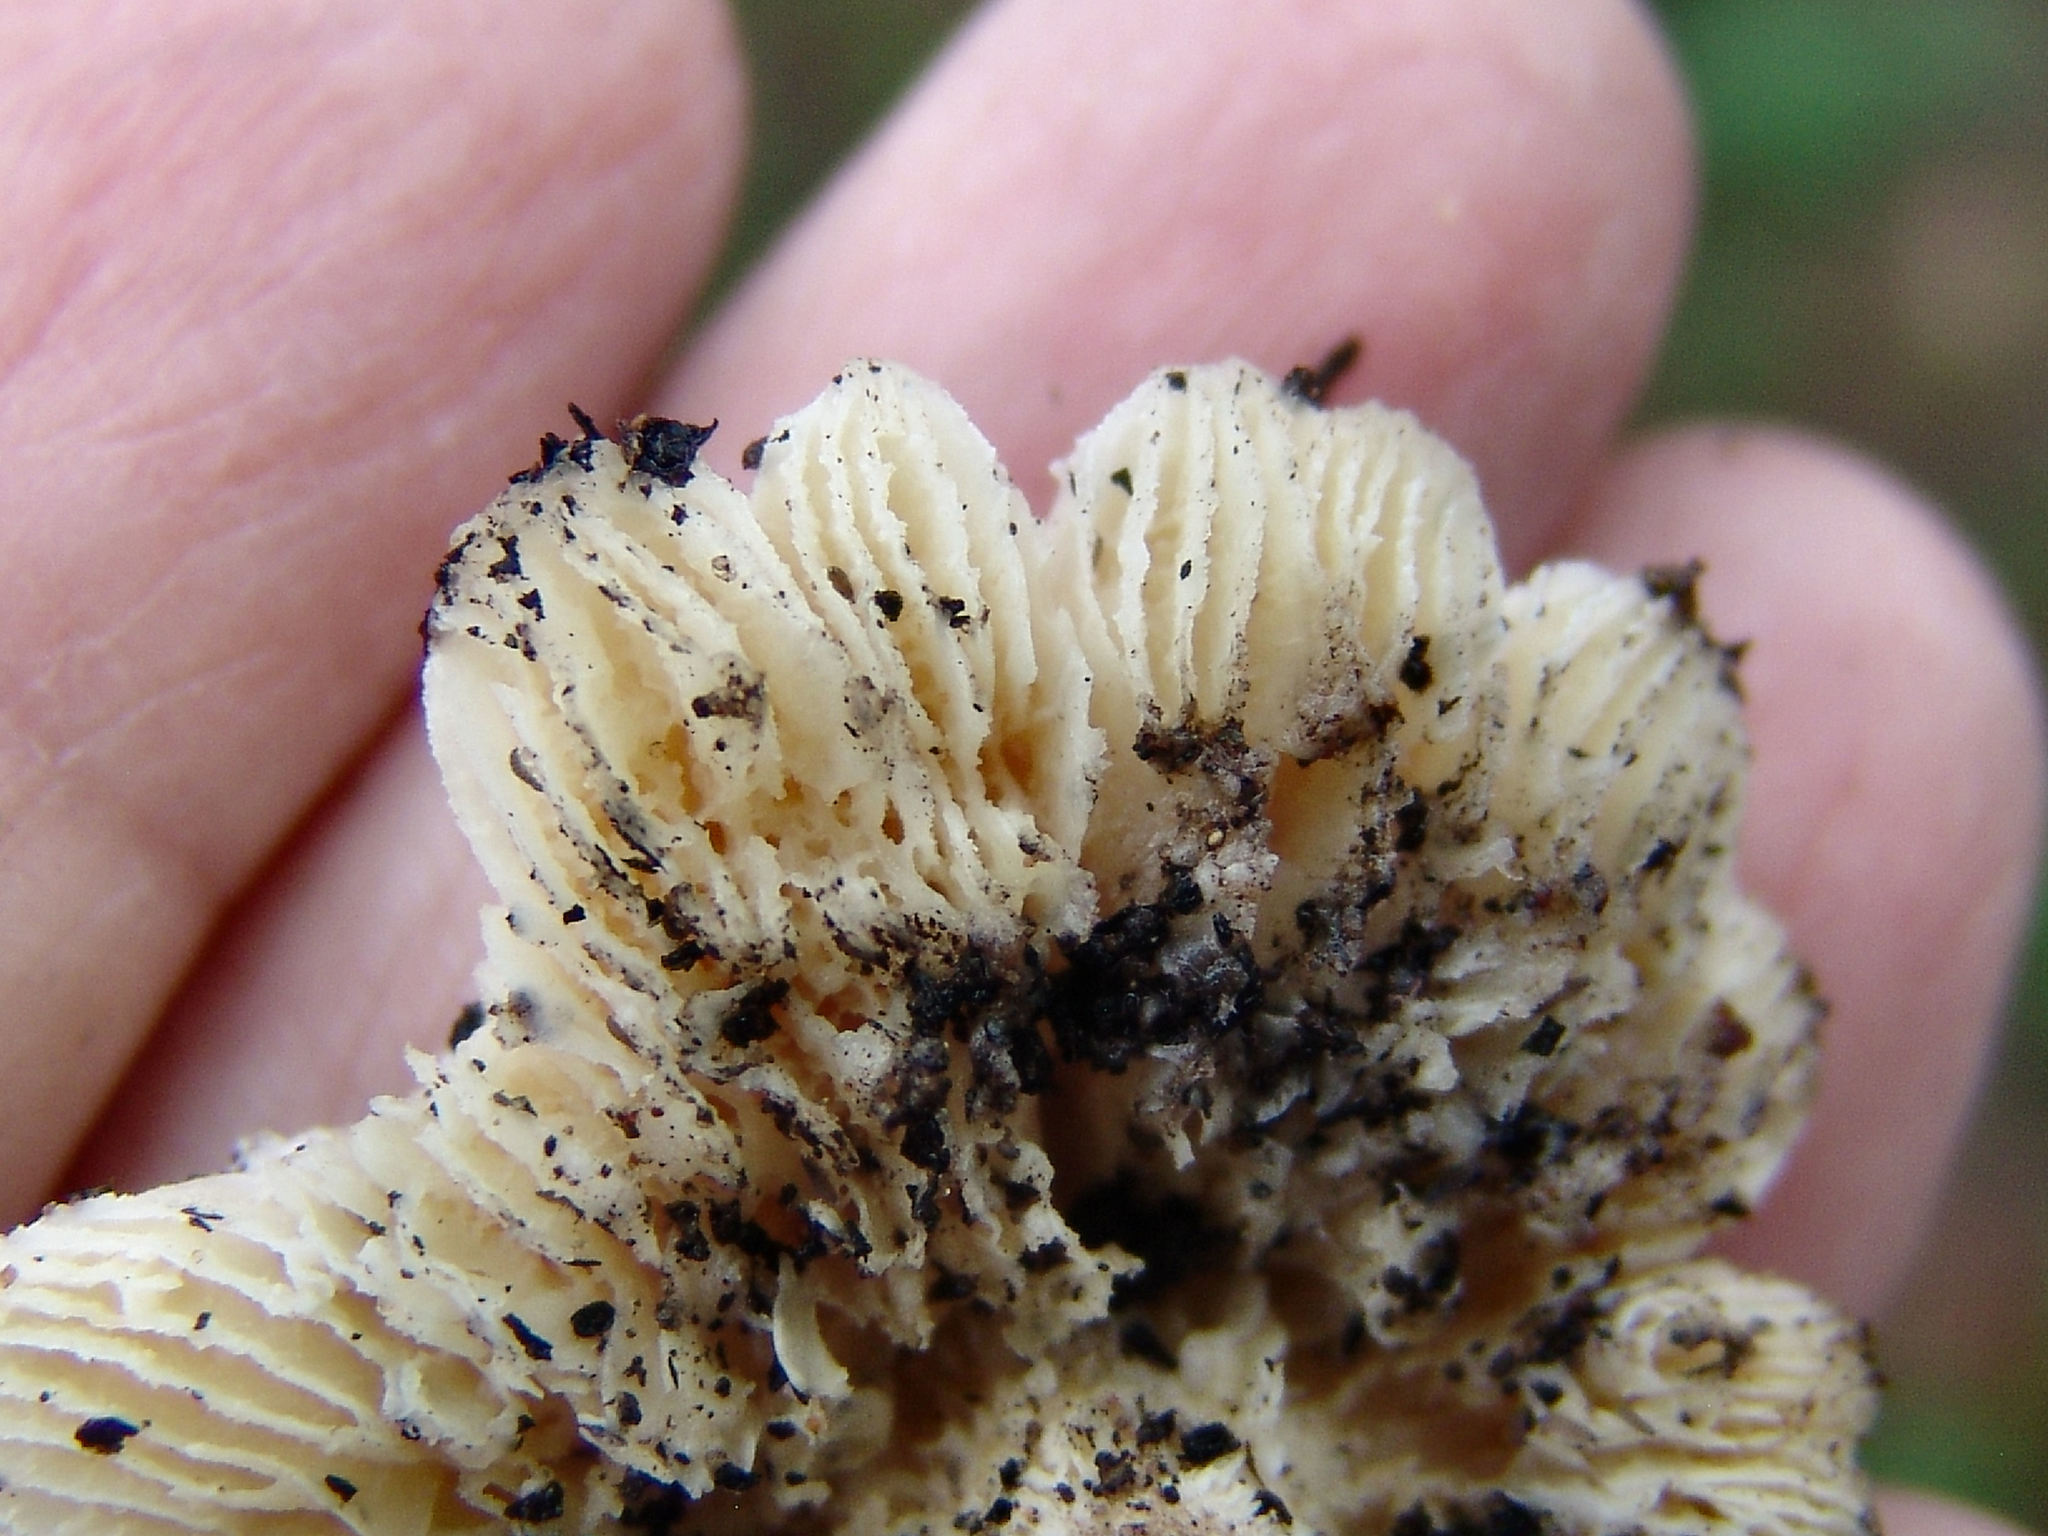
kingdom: Fungi
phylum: Basidiomycota
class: Agaricomycetes
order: Polyporales
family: Polyporaceae
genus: Lentinus
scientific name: Lentinus tigrinus
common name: Tiger sawgill
